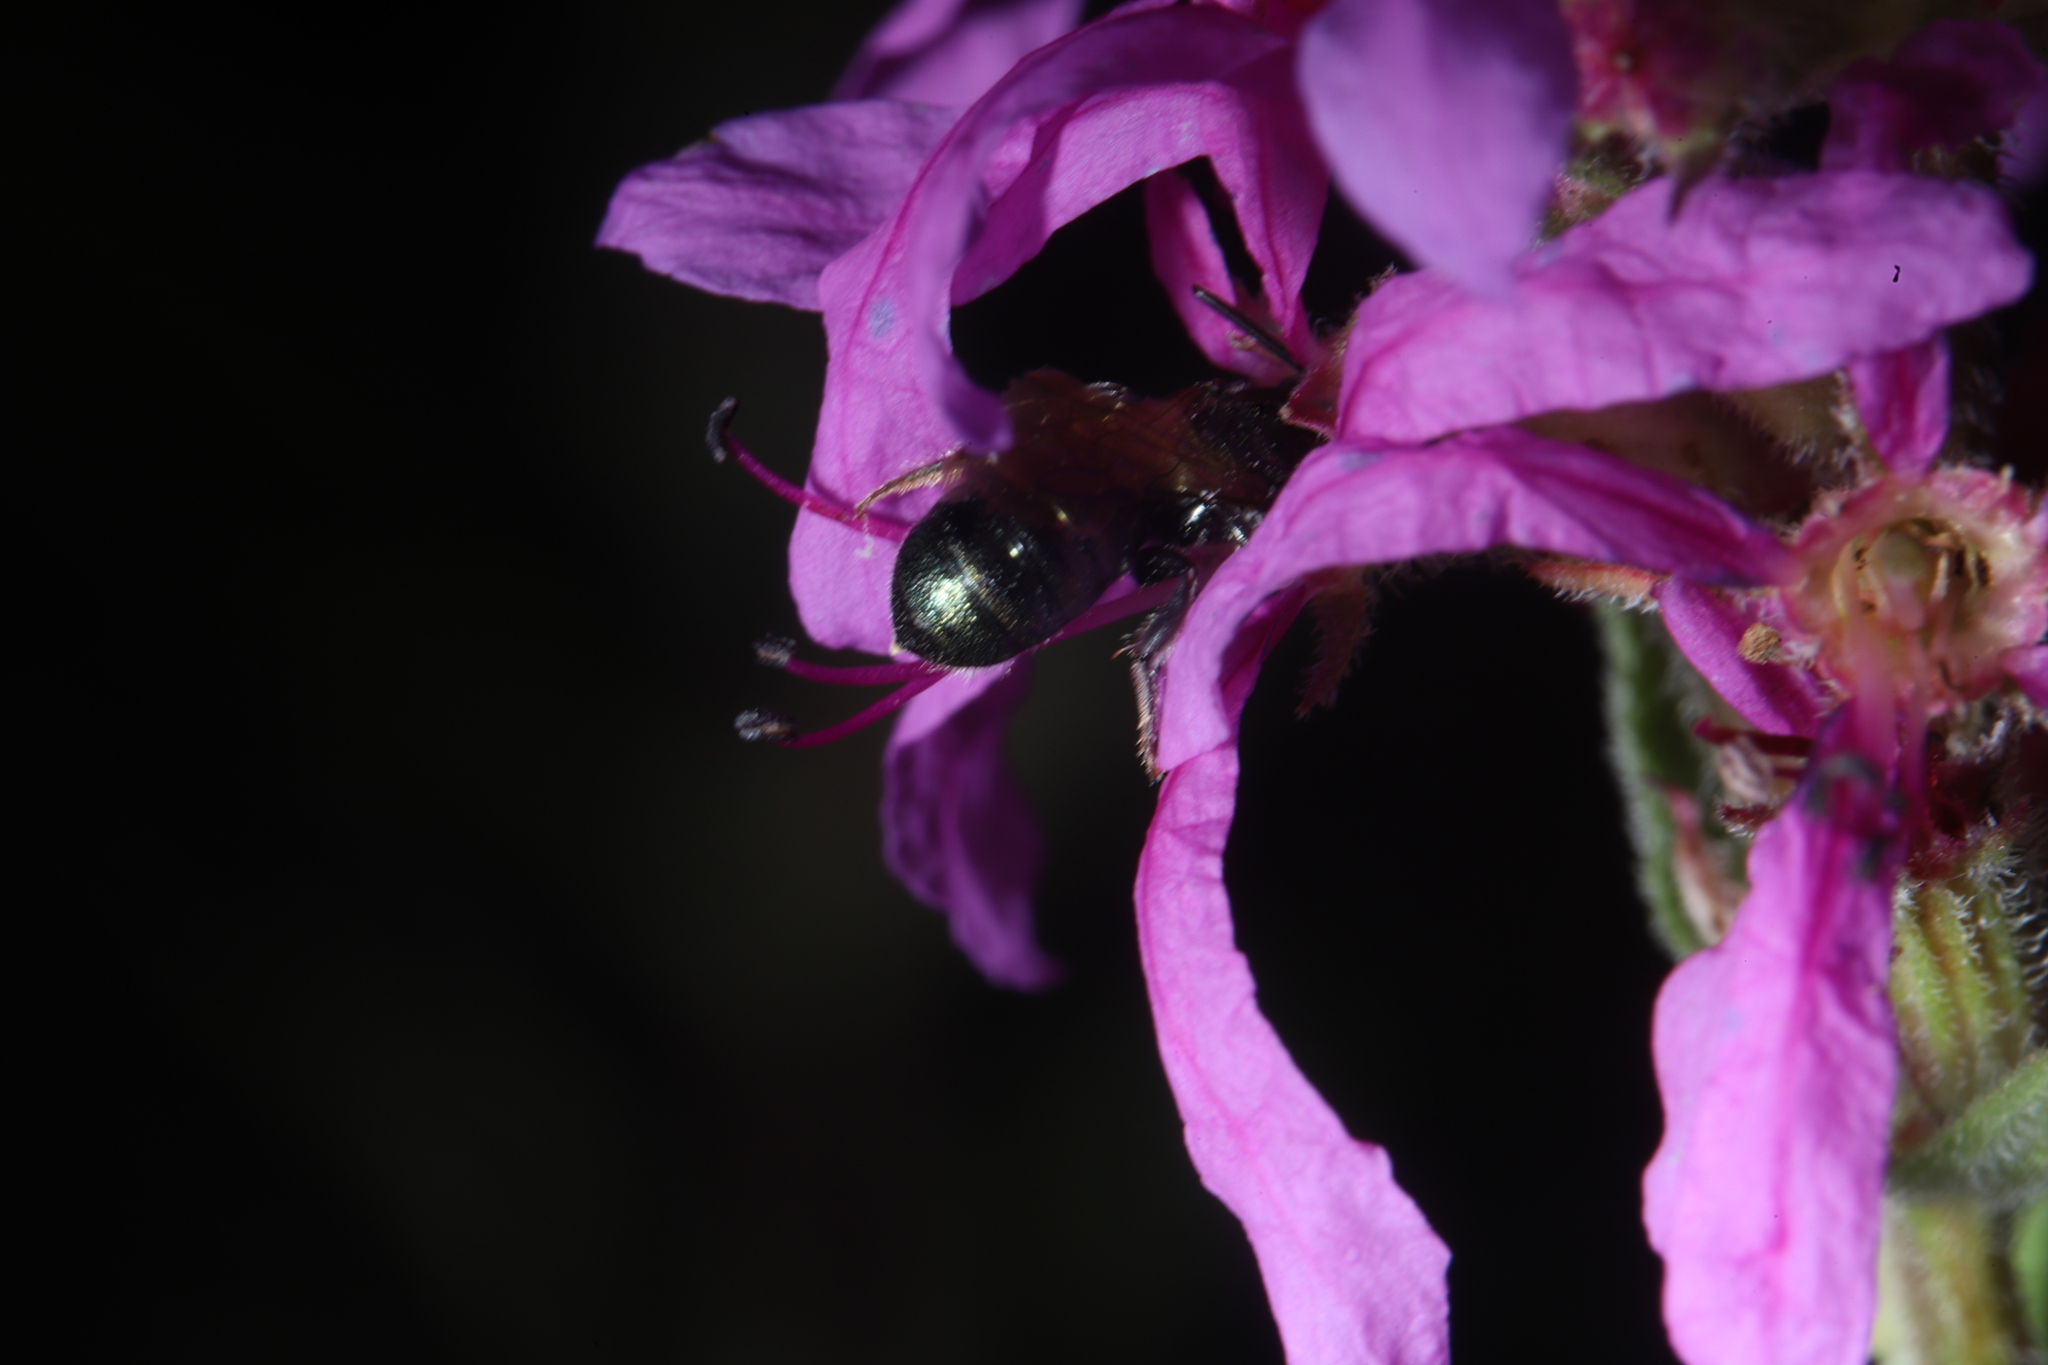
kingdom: Animalia
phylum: Arthropoda
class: Insecta
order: Hymenoptera
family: Apidae
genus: Zadontomerus
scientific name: Zadontomerus
